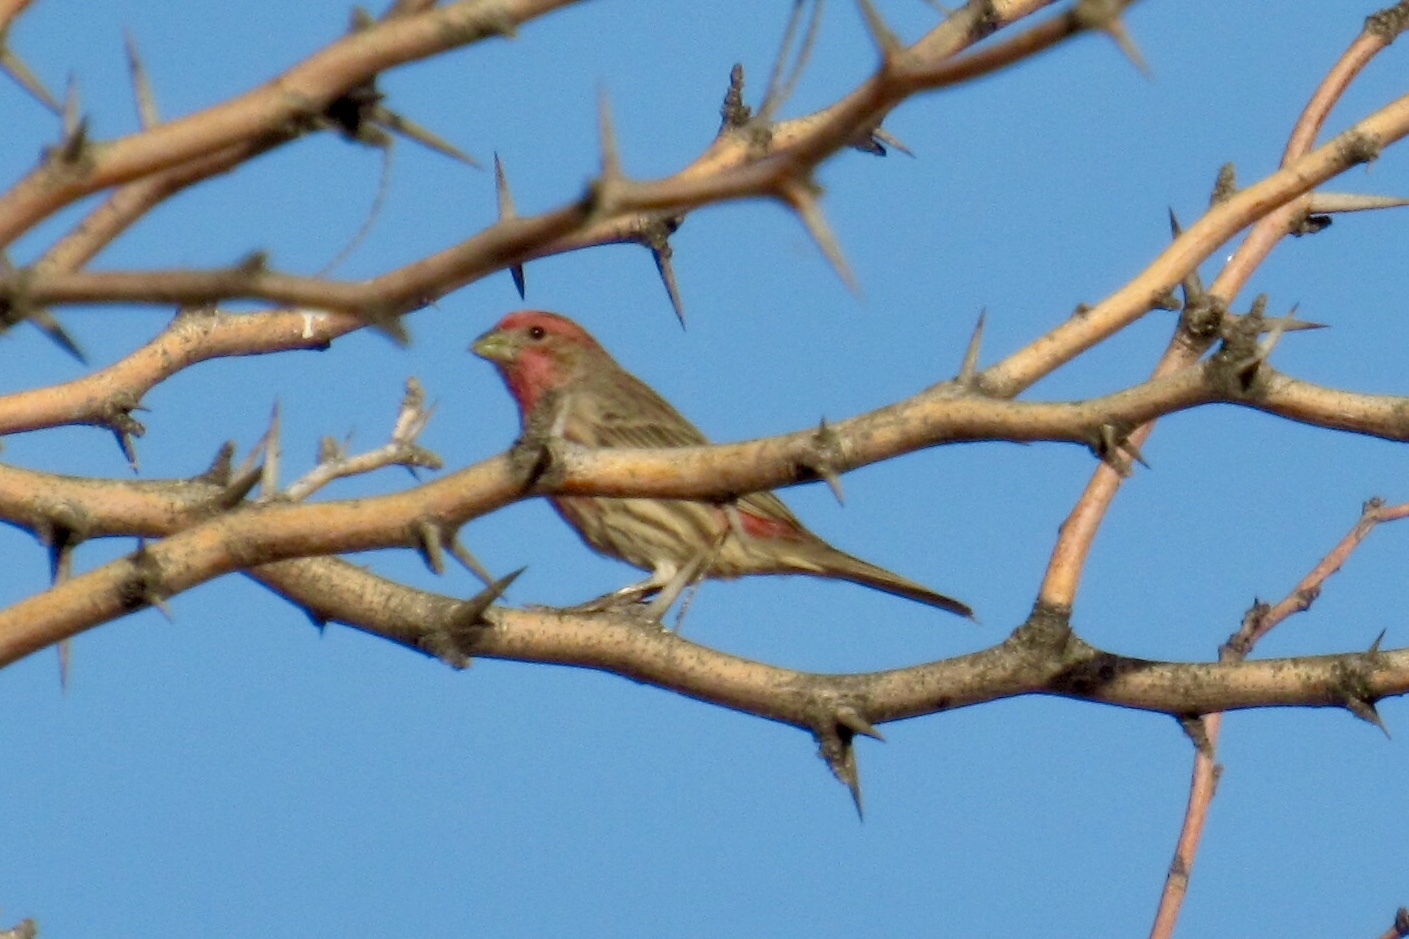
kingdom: Animalia
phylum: Chordata
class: Aves
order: Passeriformes
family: Fringillidae
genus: Haemorhous
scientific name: Haemorhous mexicanus
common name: House finch
